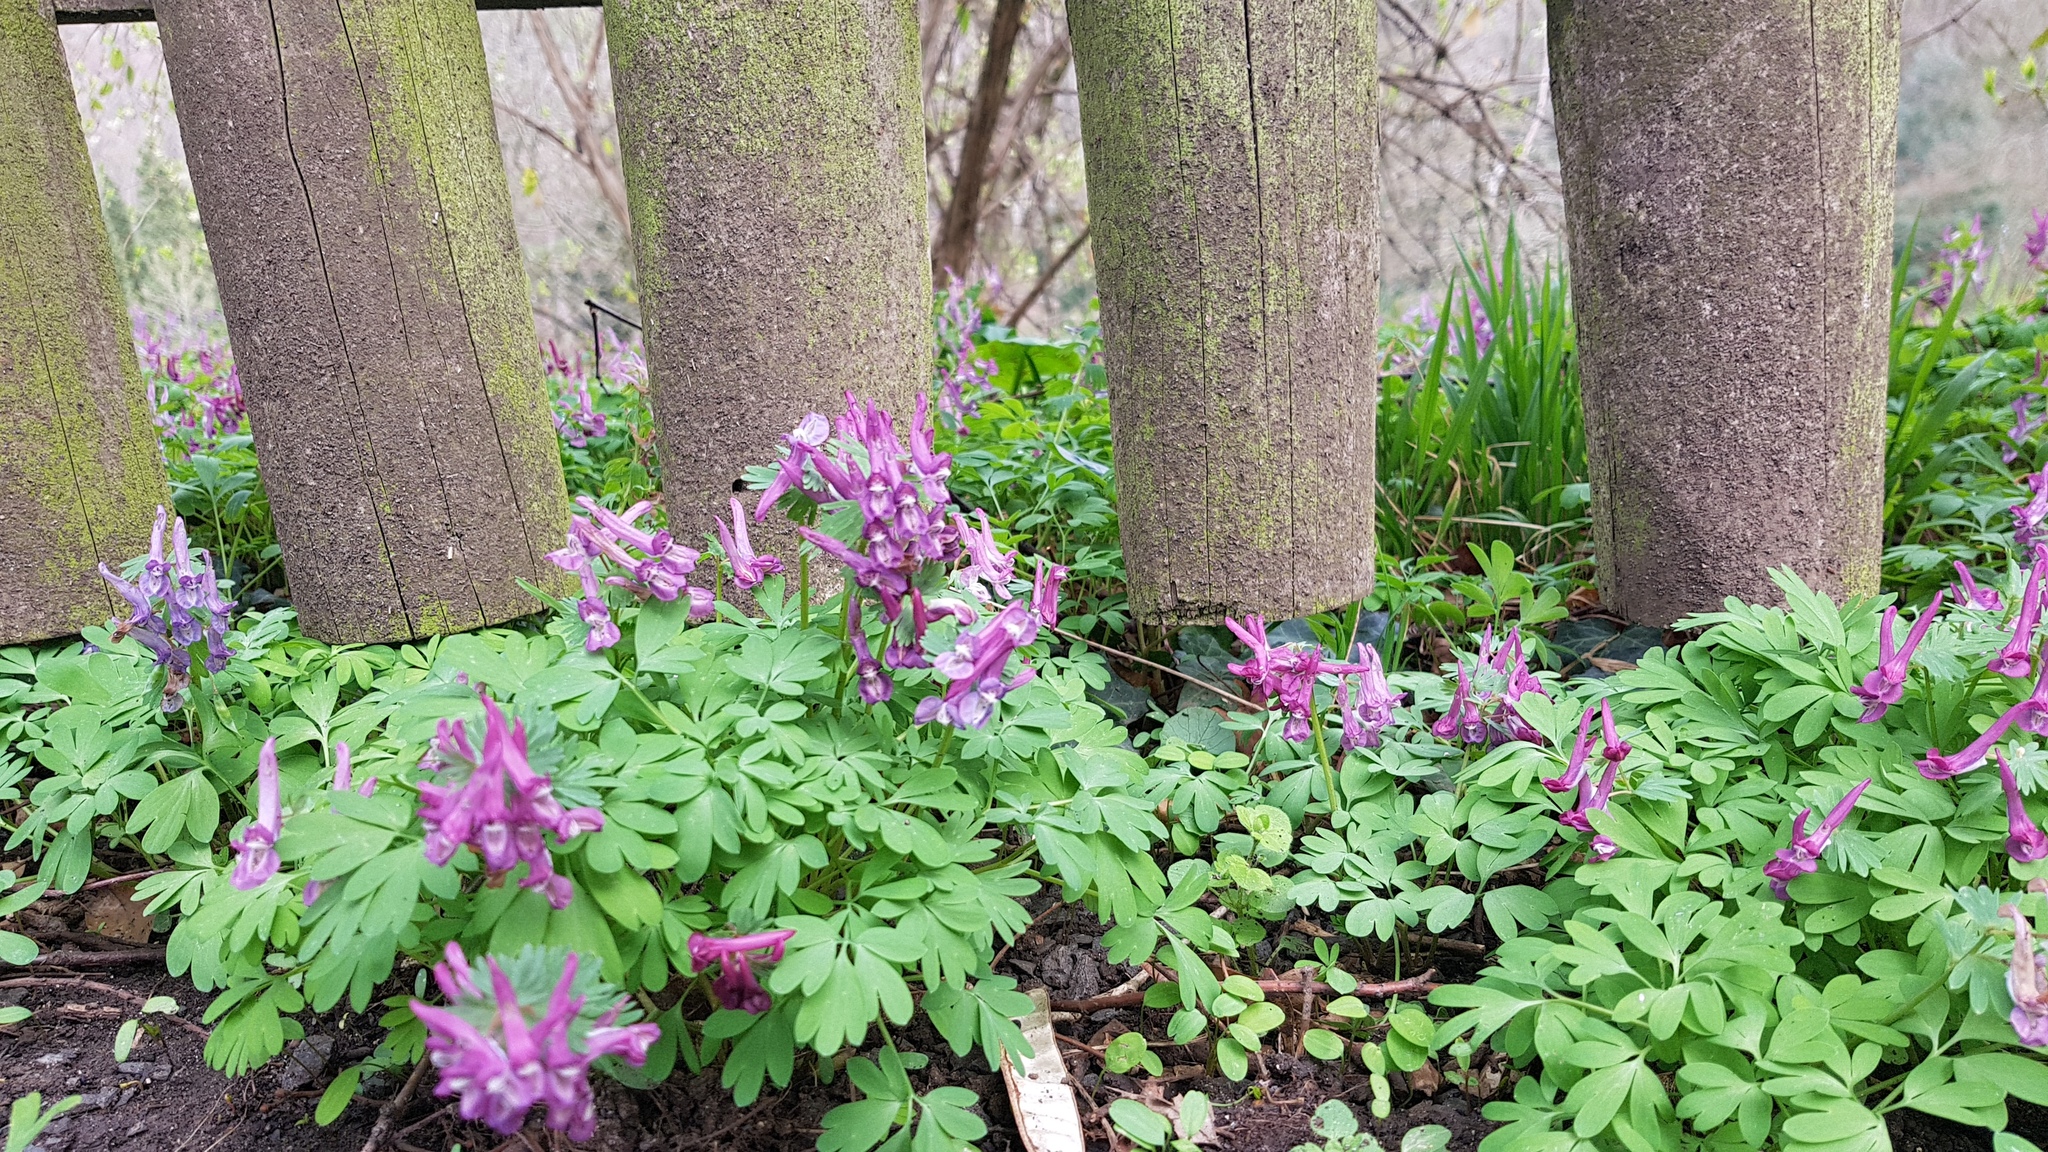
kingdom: Plantae
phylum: Tracheophyta
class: Magnoliopsida
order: Ranunculales
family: Papaveraceae
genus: Corydalis
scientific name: Corydalis solida
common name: Bird-in-a-bush
